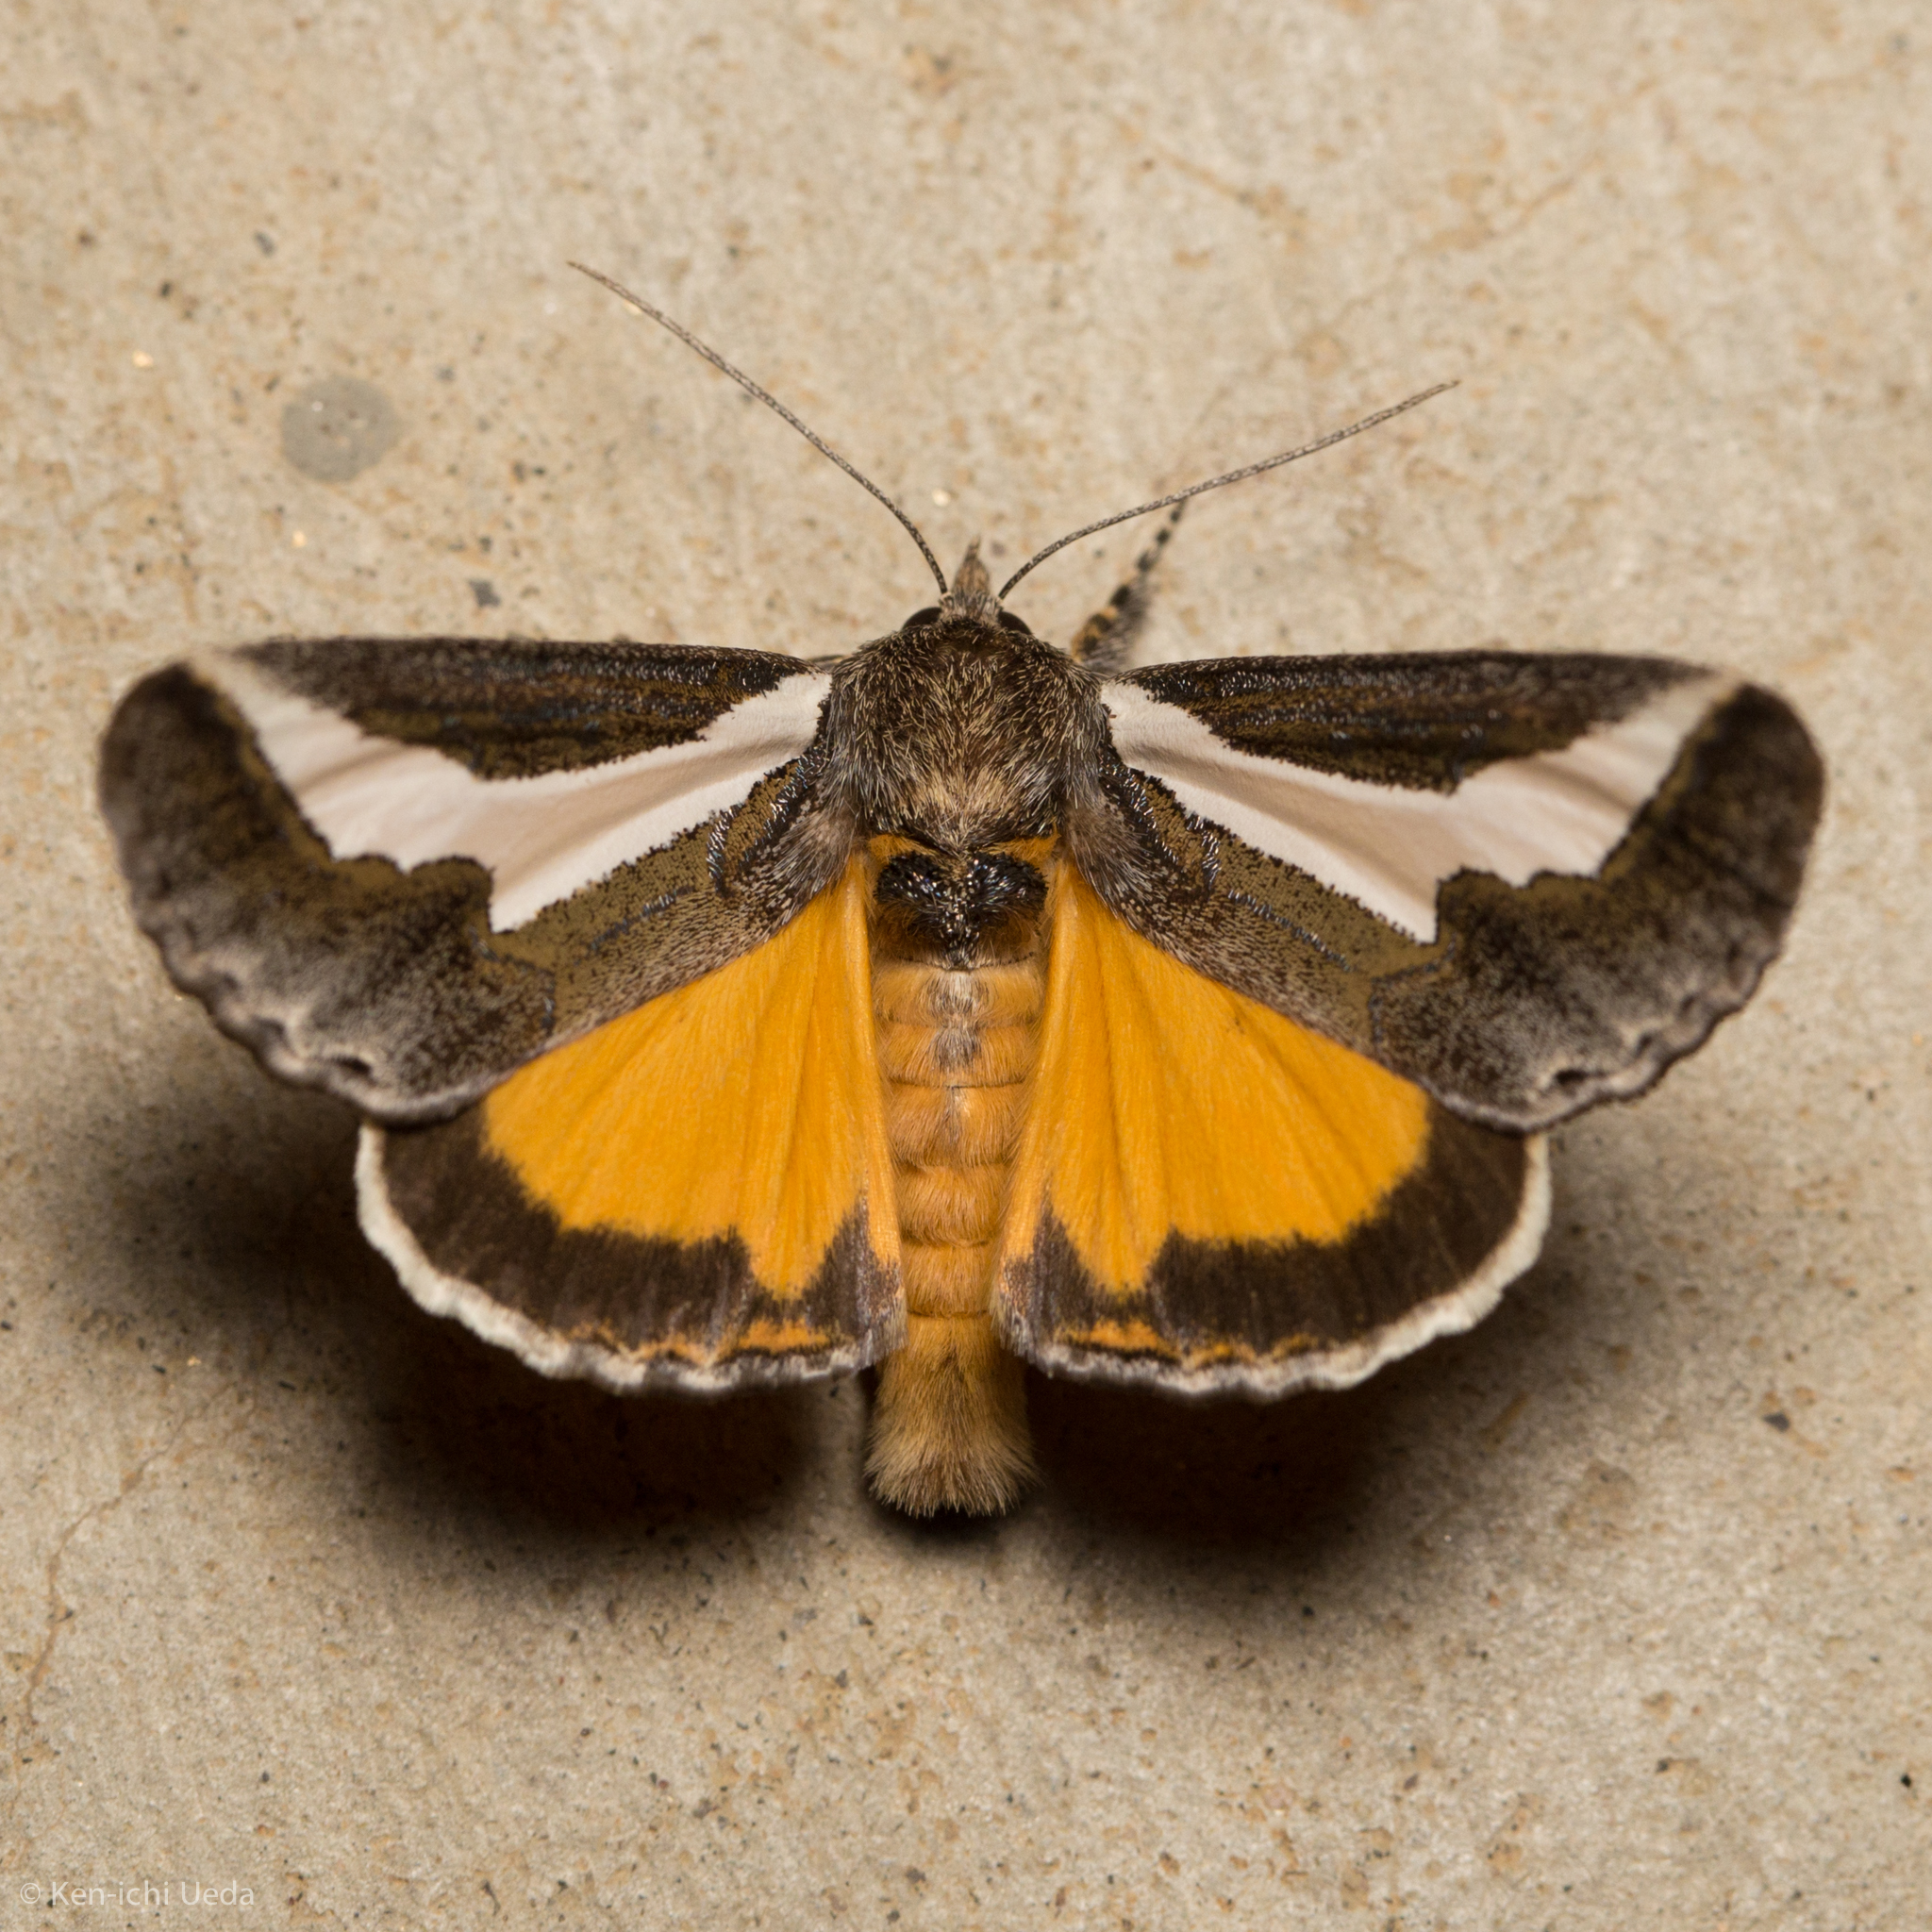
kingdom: Animalia
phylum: Arthropoda
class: Insecta
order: Lepidoptera
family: Noctuidae
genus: Euscirrhopterus
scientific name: Euscirrhopterus cosyra
